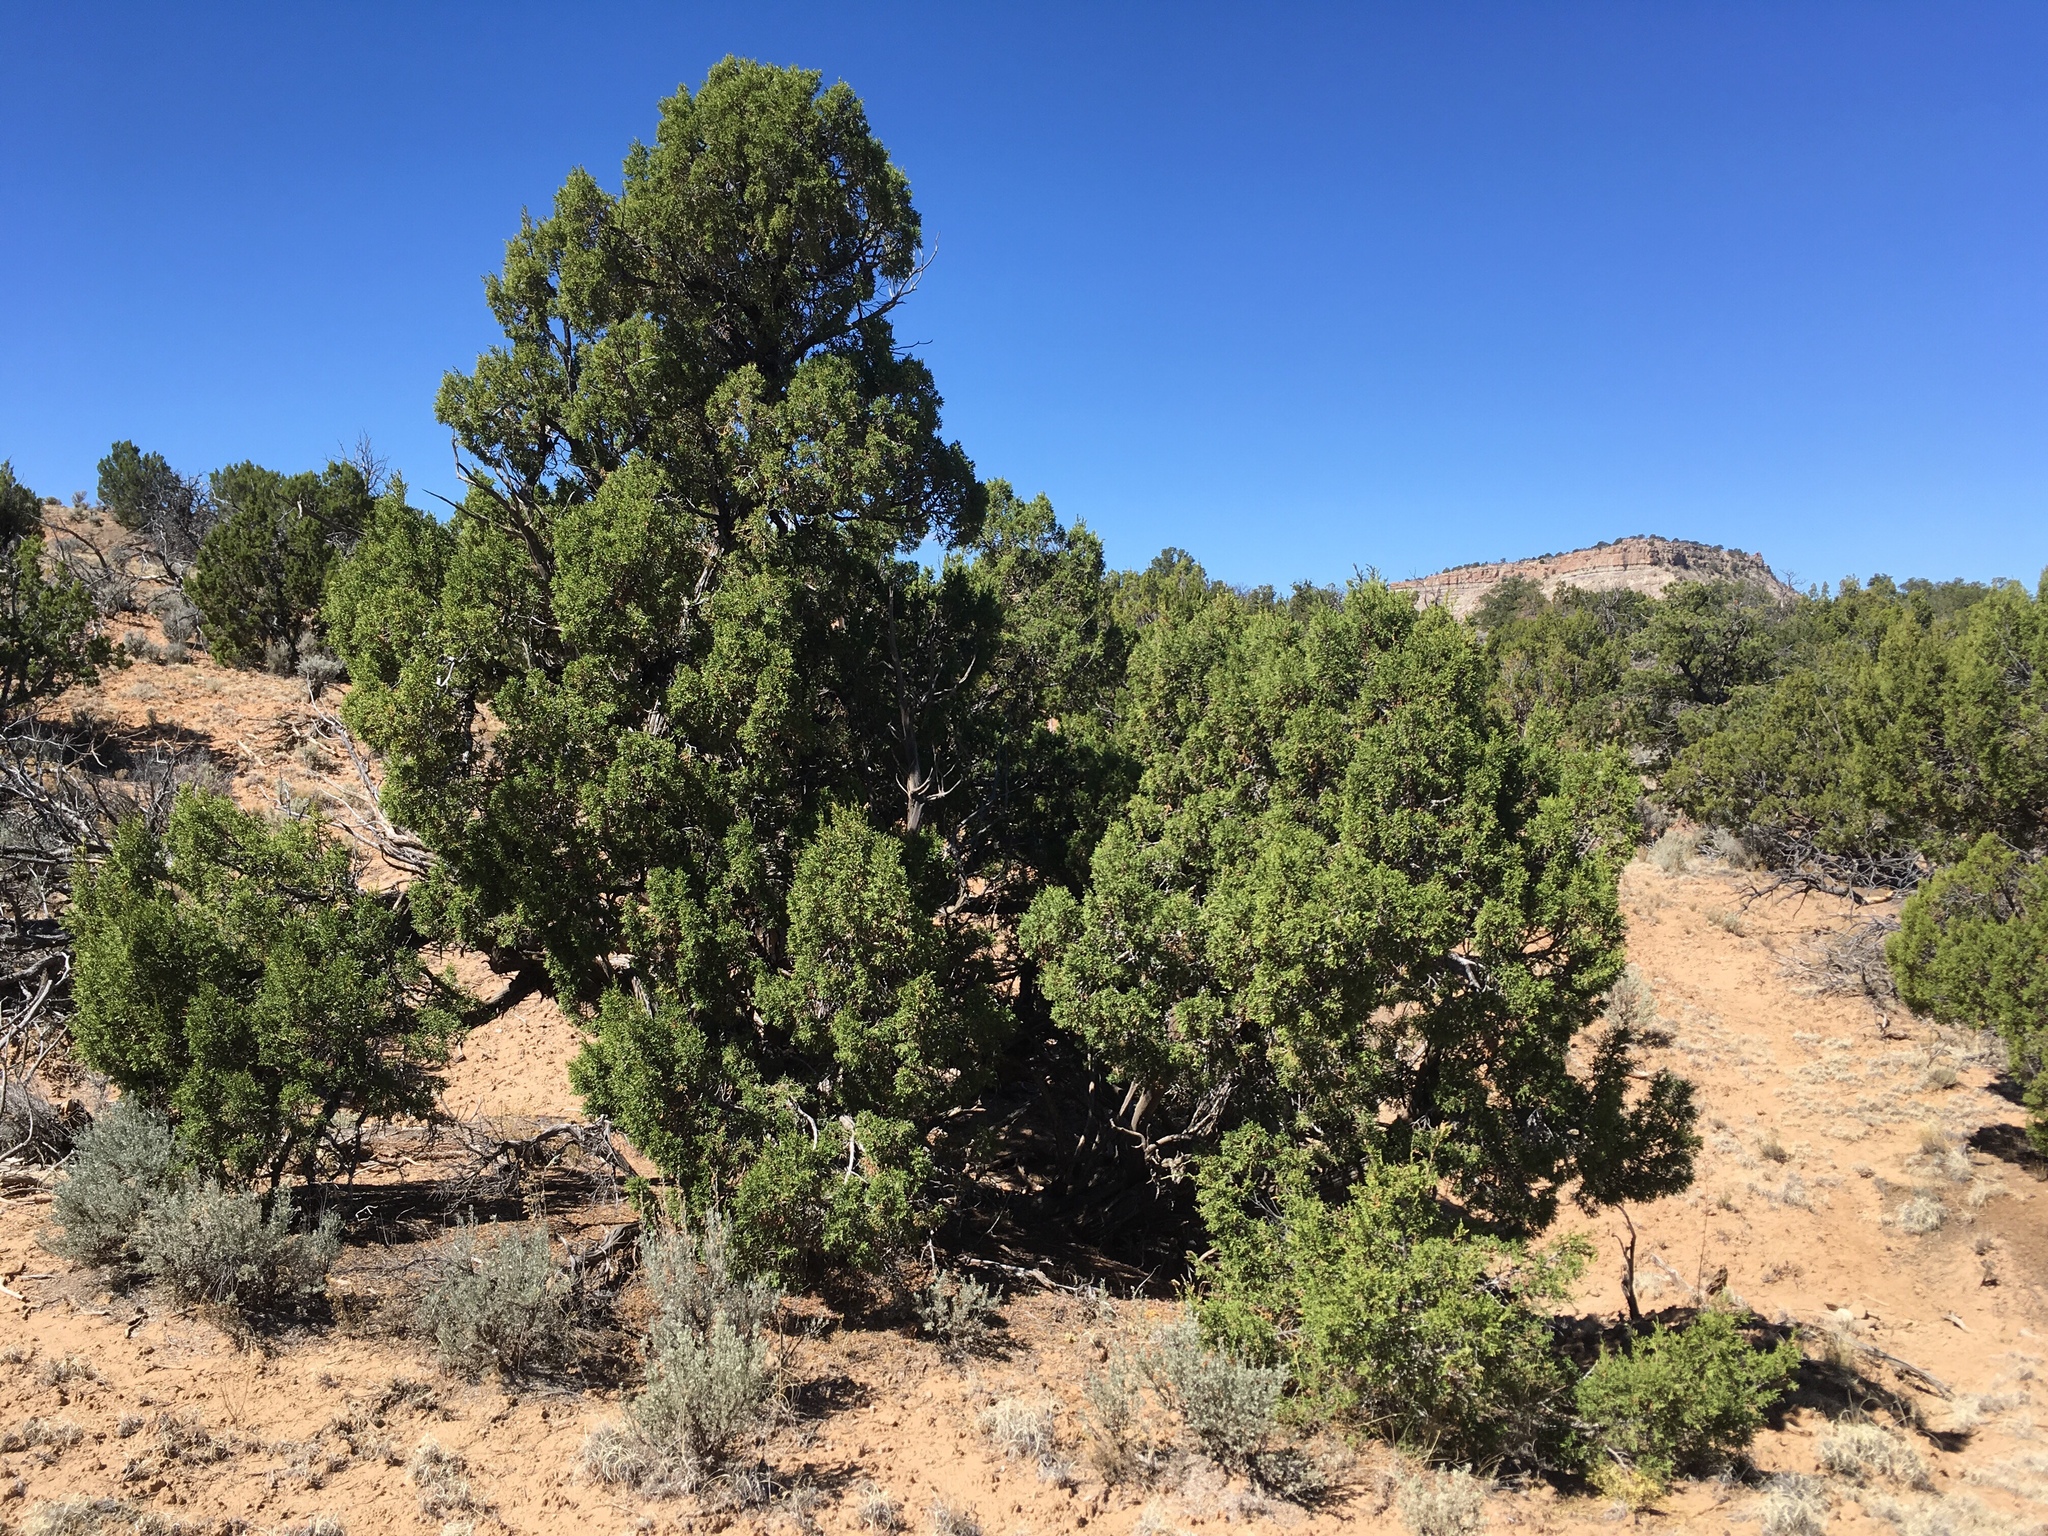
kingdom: Plantae
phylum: Tracheophyta
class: Pinopsida
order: Pinales
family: Cupressaceae
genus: Juniperus
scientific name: Juniperus monosperma
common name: One-seed juniper
